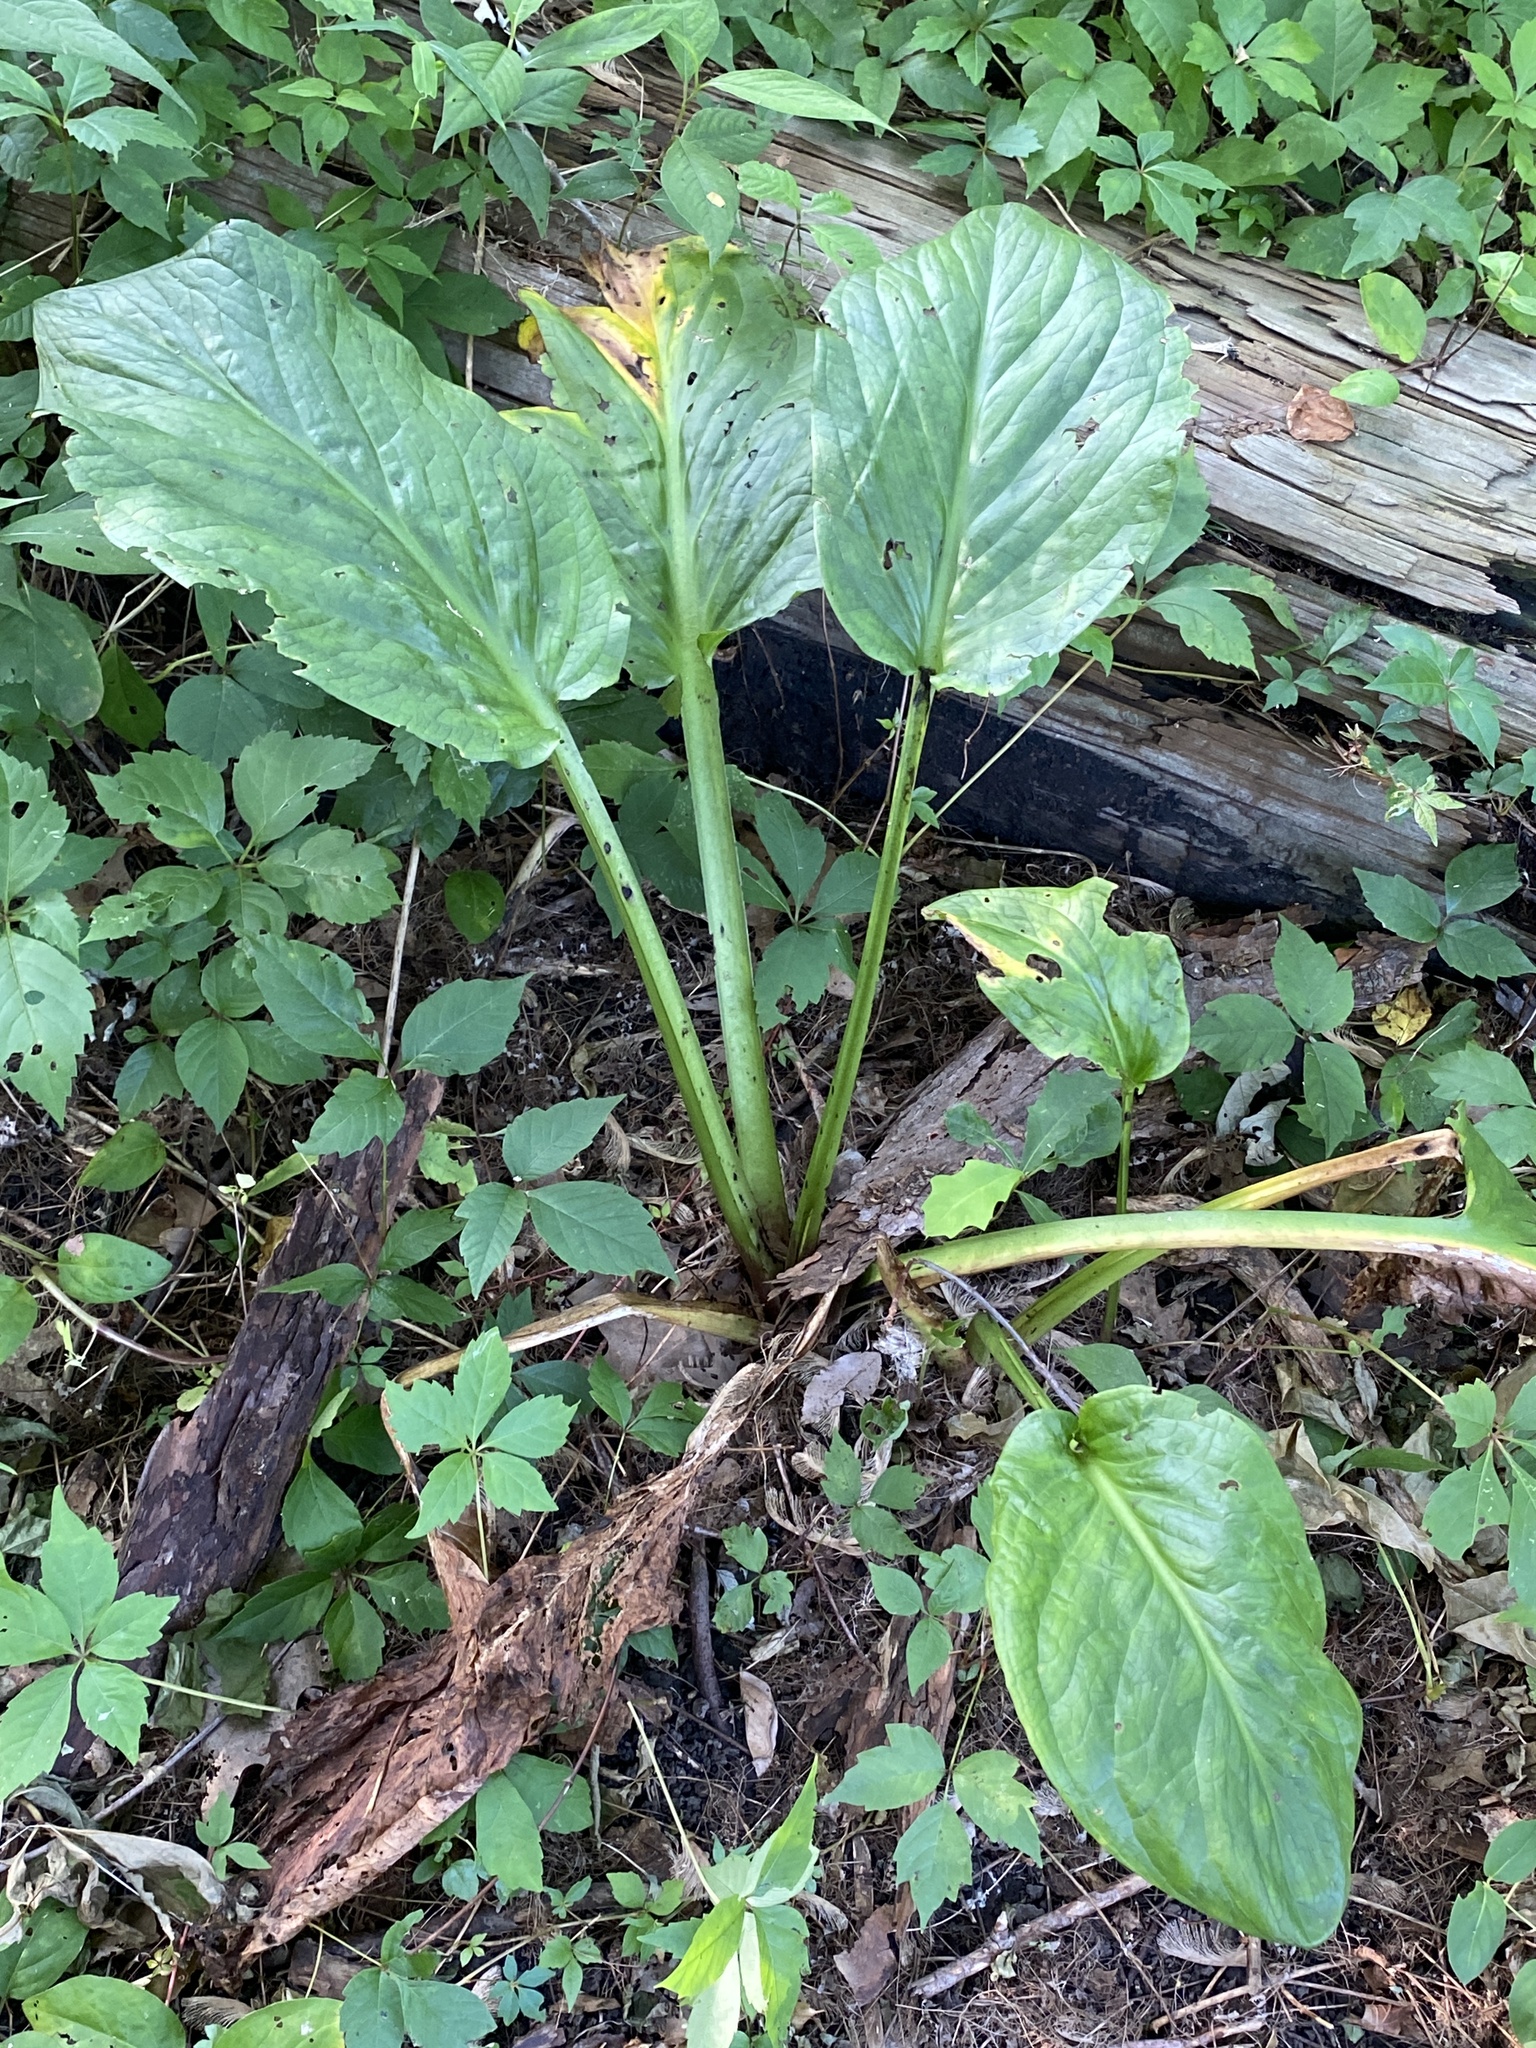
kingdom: Plantae
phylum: Tracheophyta
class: Liliopsida
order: Alismatales
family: Araceae
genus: Symplocarpus
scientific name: Symplocarpus foetidus
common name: Eastern skunk cabbage
